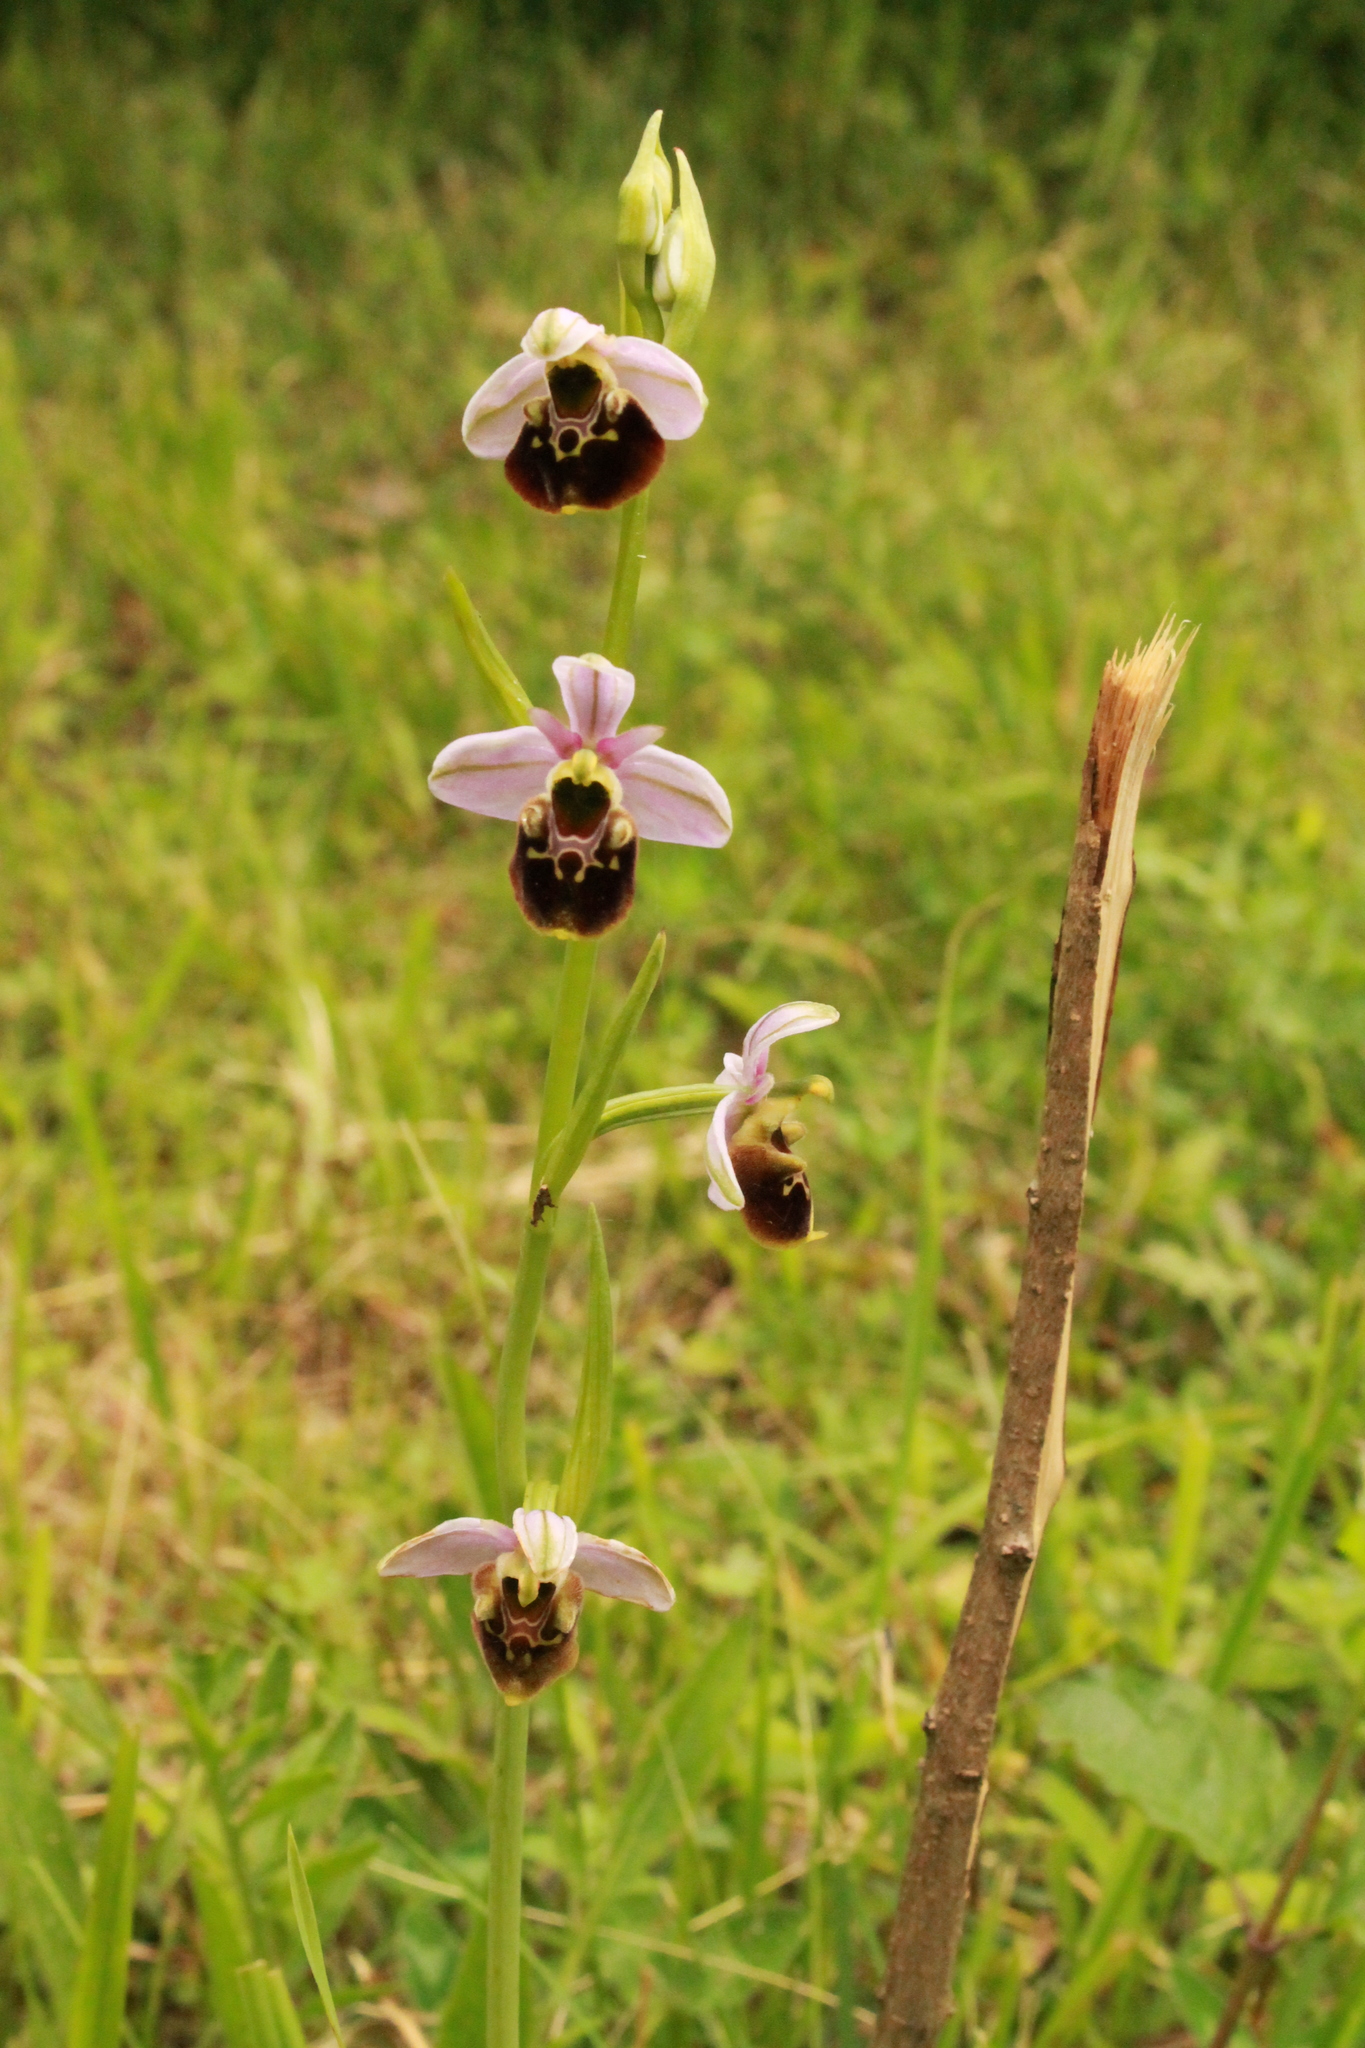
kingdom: Plantae
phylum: Tracheophyta
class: Liliopsida
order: Asparagales
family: Orchidaceae
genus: Ophrys
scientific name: Ophrys holosericea
